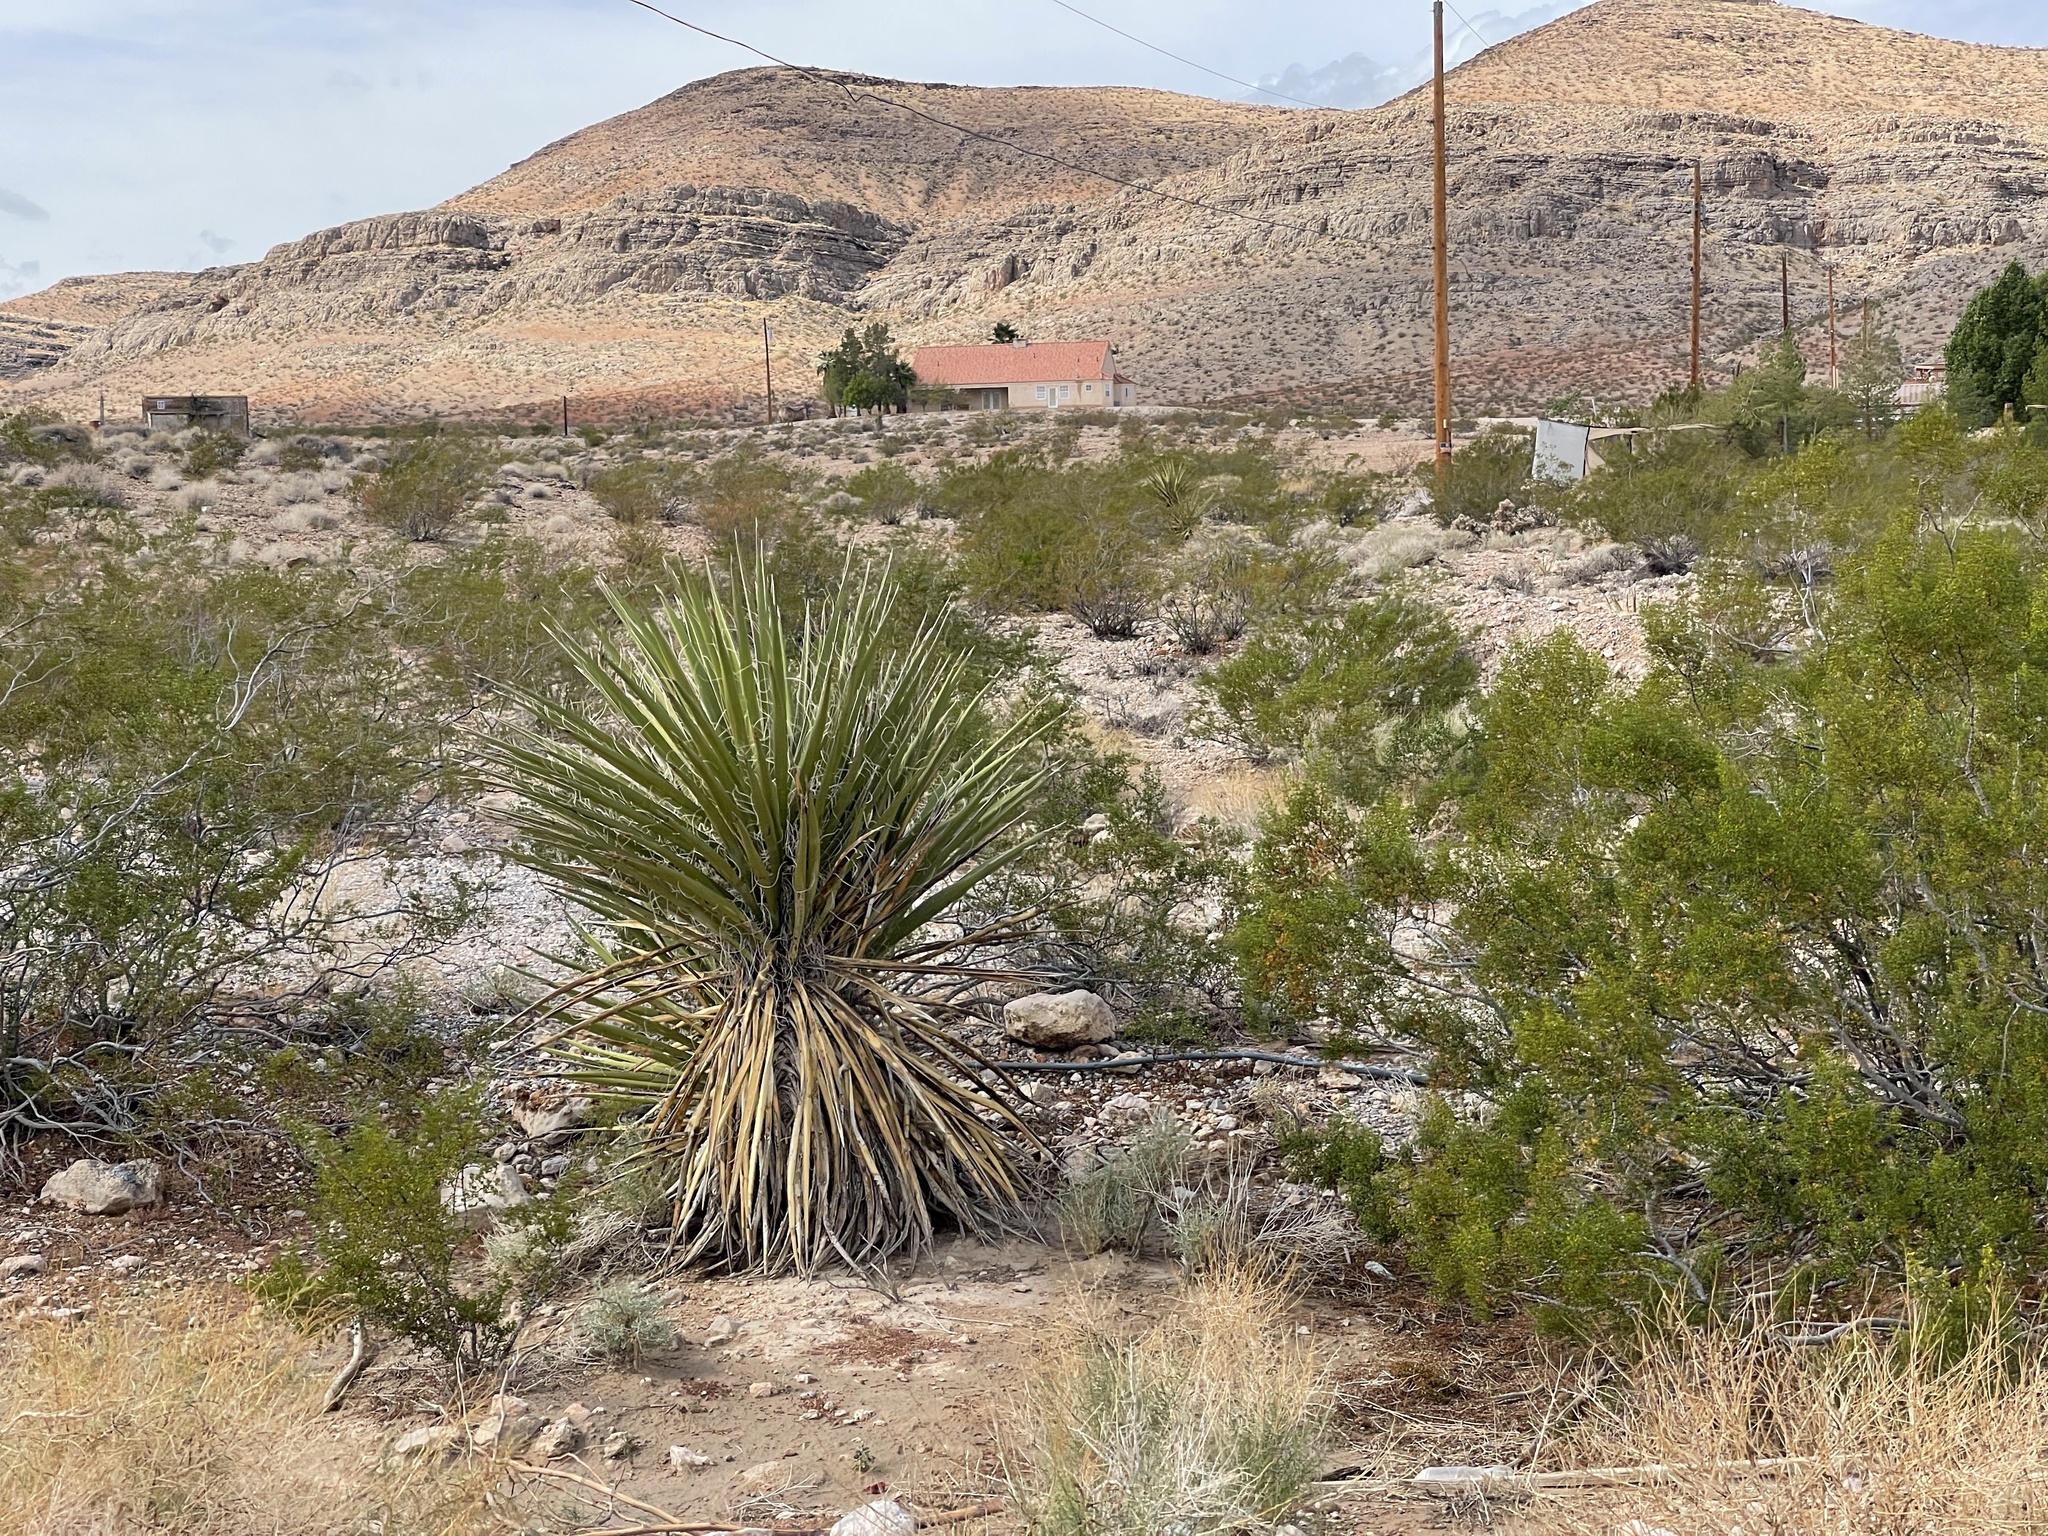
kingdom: Plantae
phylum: Tracheophyta
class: Liliopsida
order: Asparagales
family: Asparagaceae
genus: Yucca
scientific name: Yucca schidigera
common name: Mojave yucca
